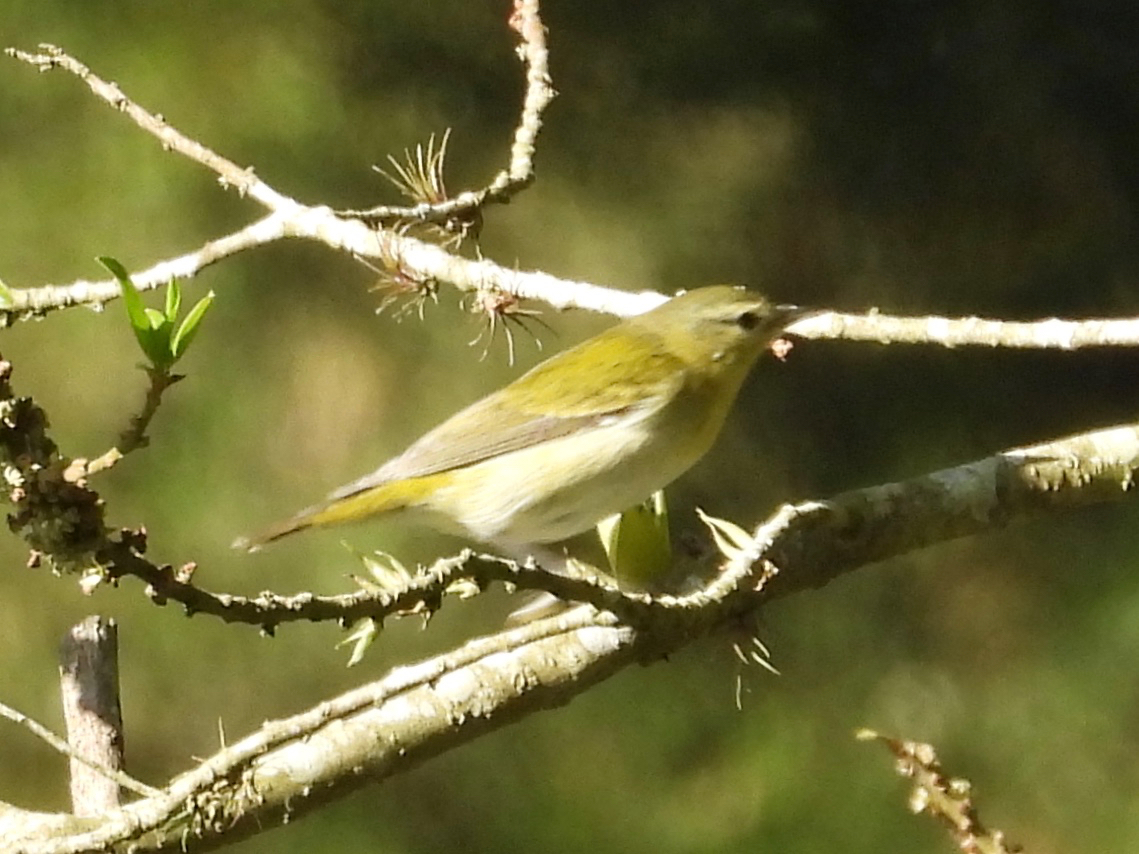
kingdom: Animalia
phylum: Chordata
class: Aves
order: Passeriformes
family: Parulidae
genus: Leiothlypis
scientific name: Leiothlypis peregrina
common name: Tennessee warbler
